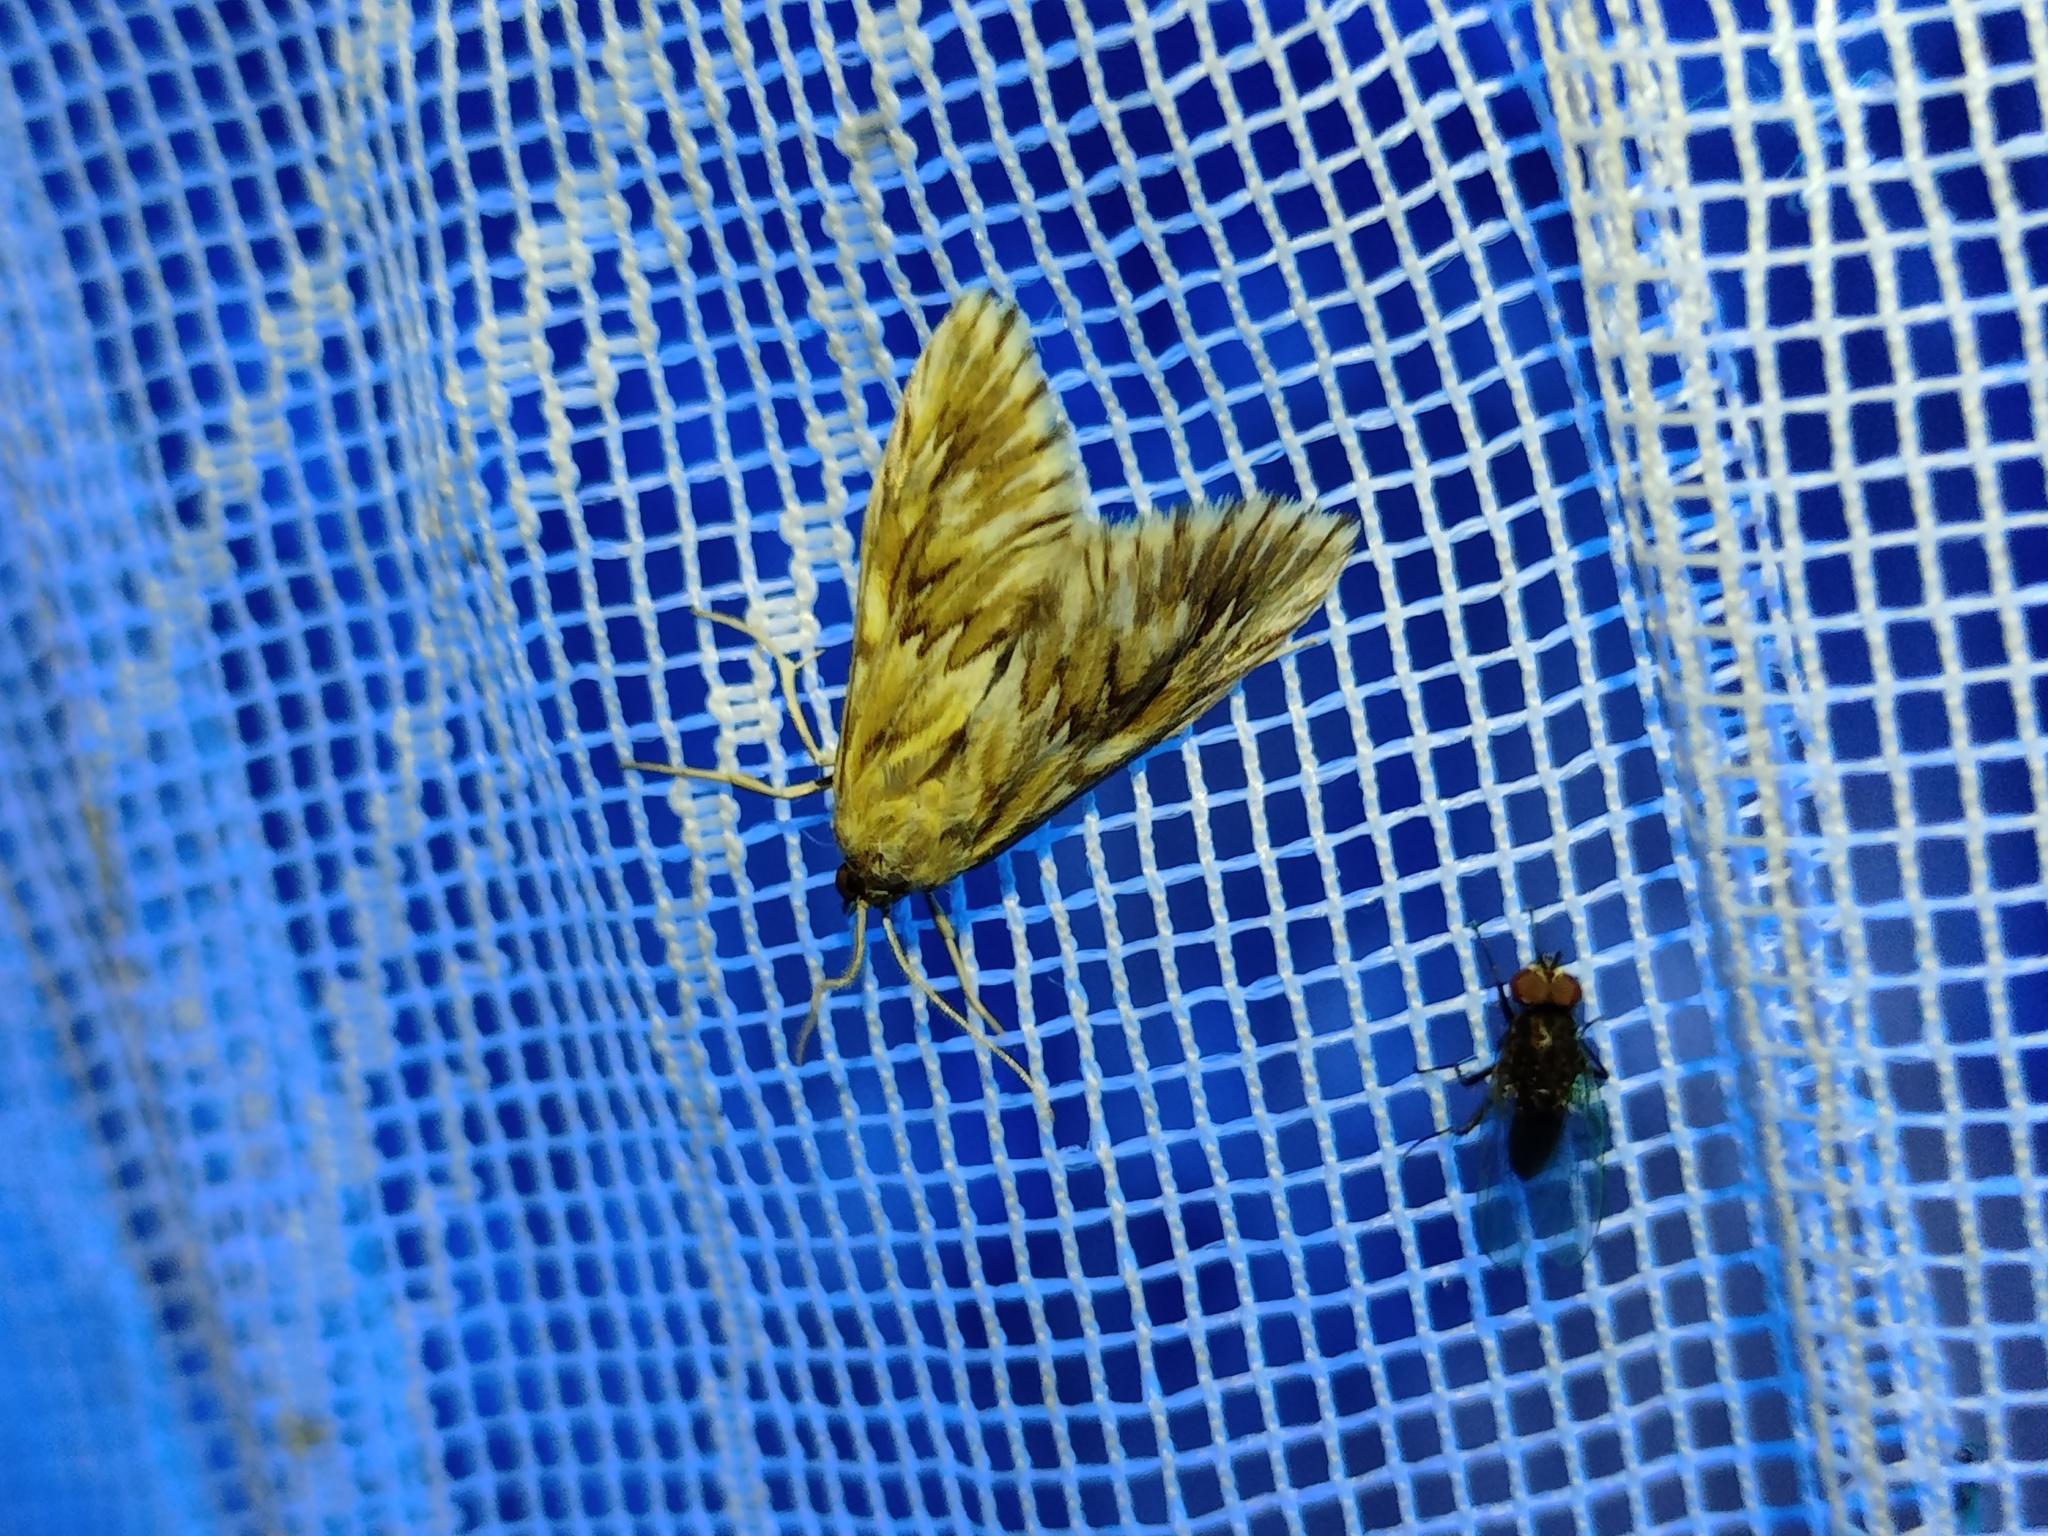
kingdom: Animalia
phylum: Arthropoda
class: Insecta
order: Lepidoptera
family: Crambidae
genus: Cynaeda
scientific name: Cynaeda dentalis
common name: Starry pearl
